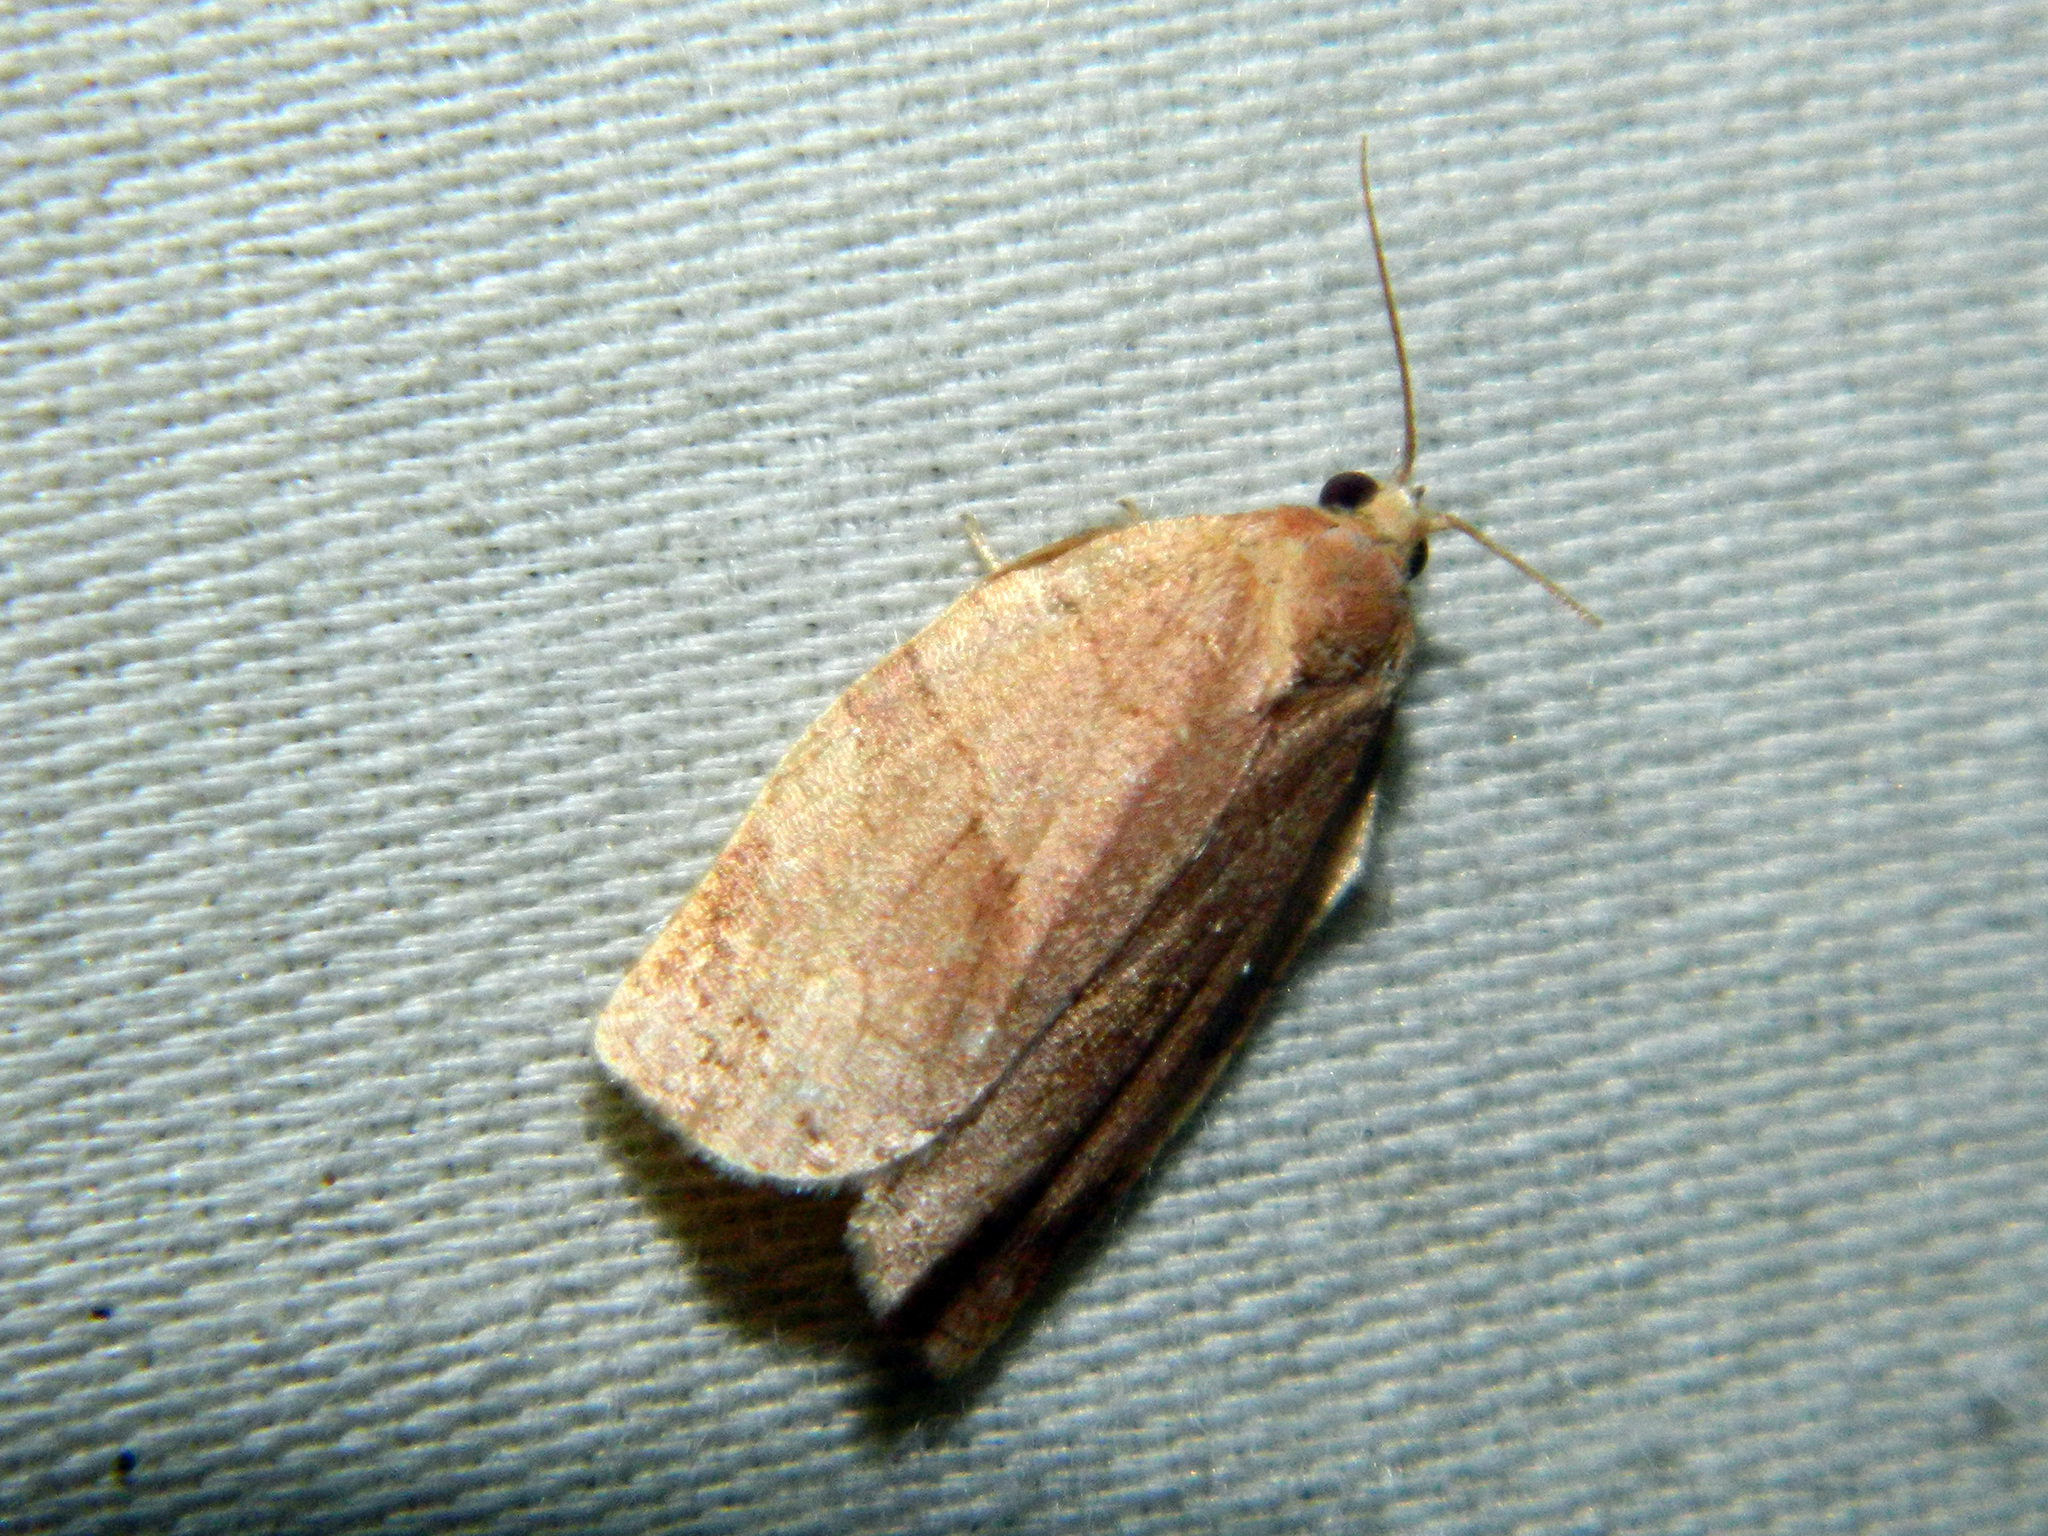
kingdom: Animalia
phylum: Arthropoda
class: Insecta
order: Lepidoptera
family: Tortricidae
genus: Choristoneura
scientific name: Choristoneura rosaceana
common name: Oblique-banded leafroller moth
